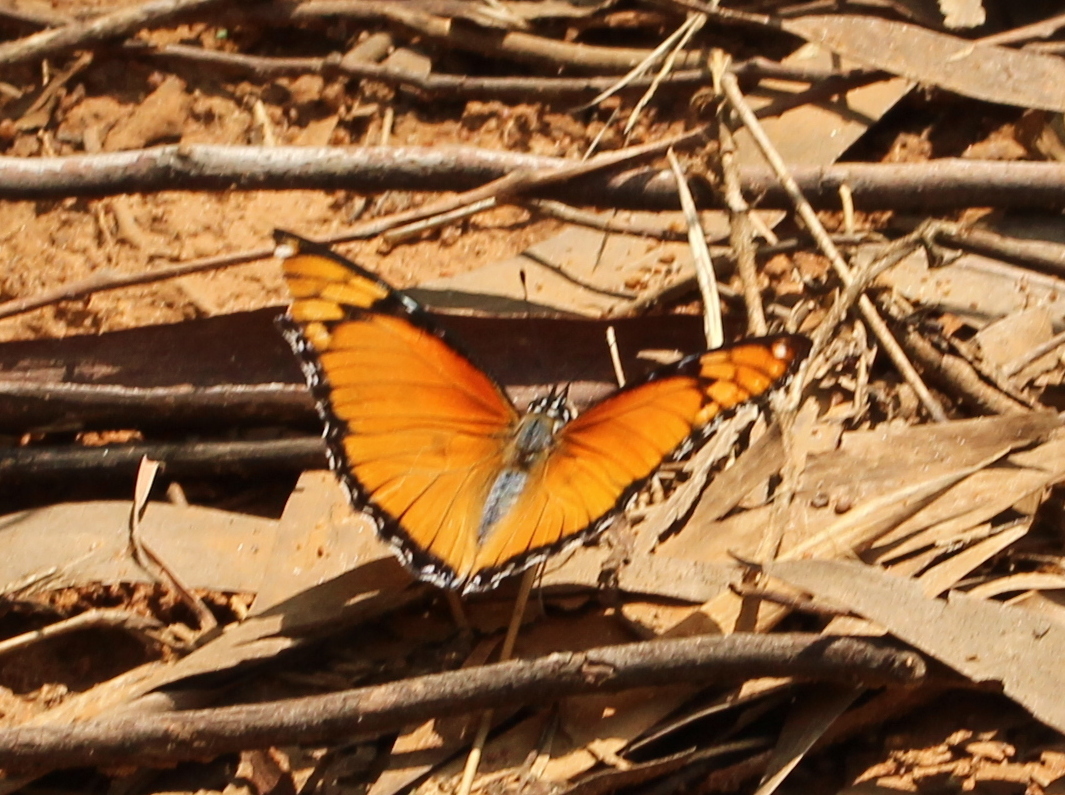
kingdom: Animalia
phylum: Arthropoda
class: Insecta
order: Lepidoptera
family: Nymphalidae
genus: Hypolimnas
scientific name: Hypolimnas misippus
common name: False plain tiger
